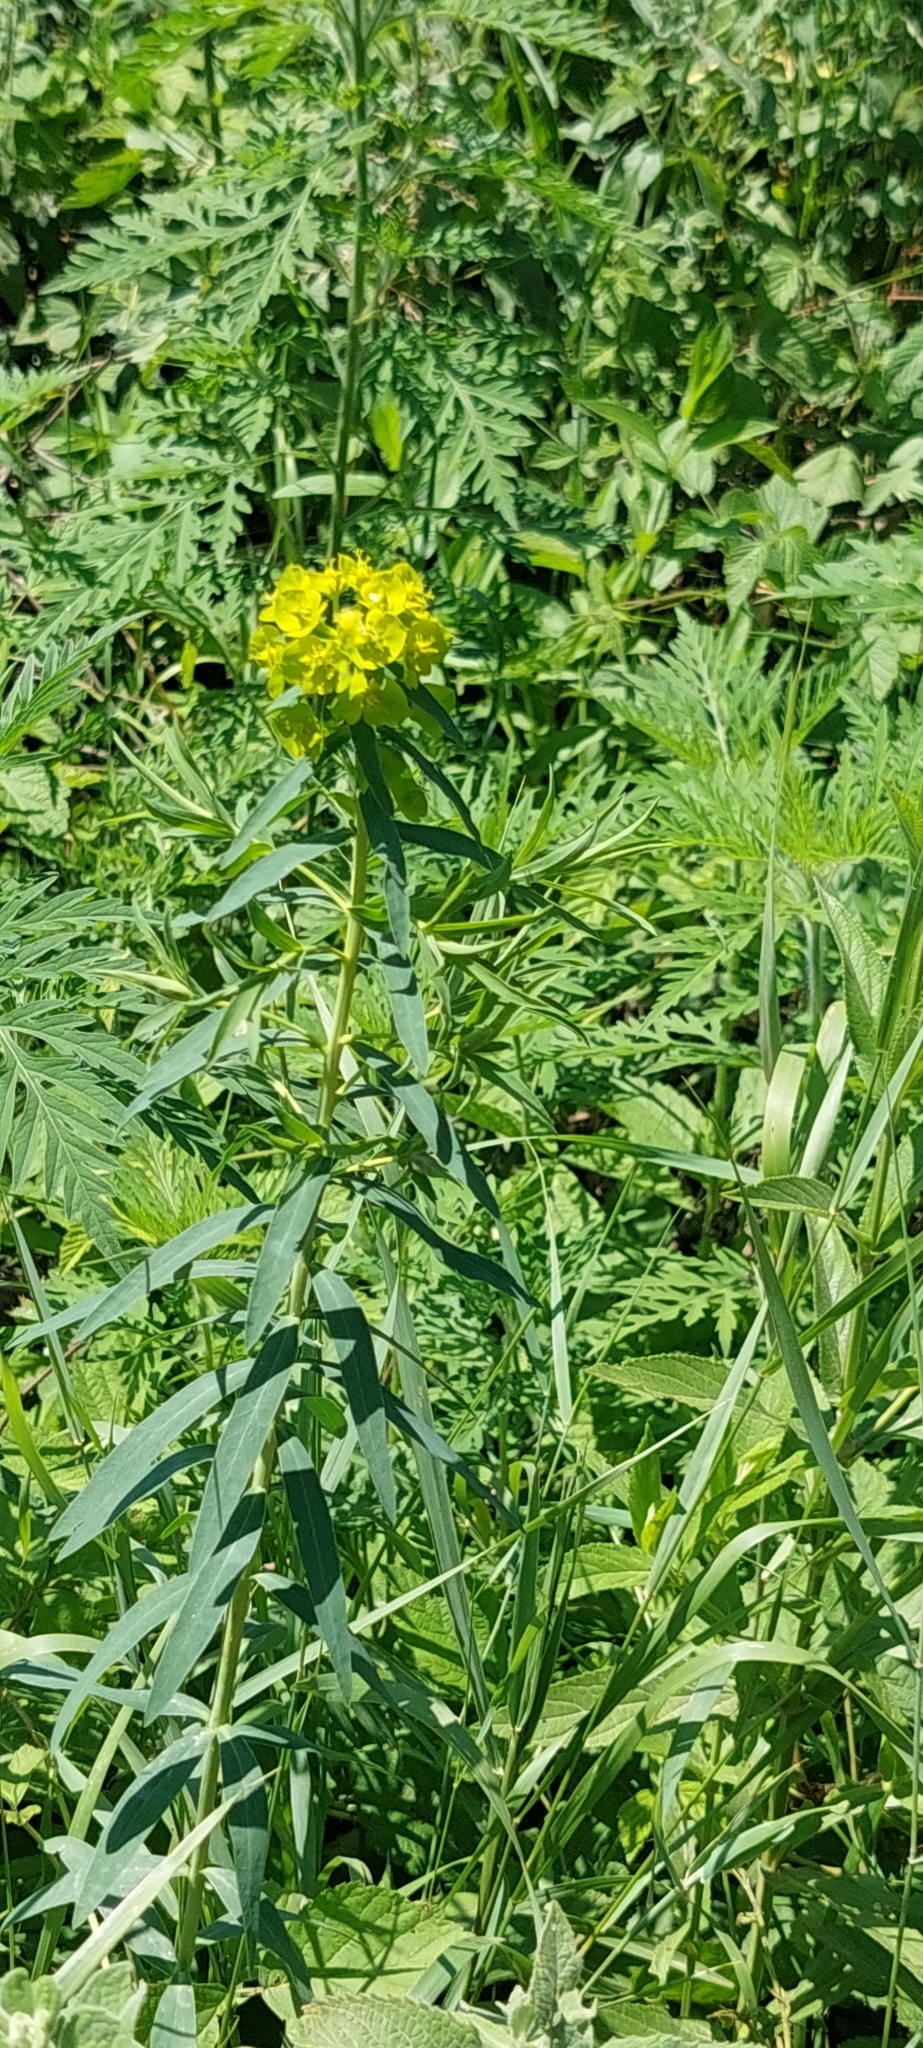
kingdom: Plantae
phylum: Tracheophyta
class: Magnoliopsida
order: Malpighiales
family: Euphorbiaceae
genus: Euphorbia
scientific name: Euphorbia virgata
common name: Leafy spurge
